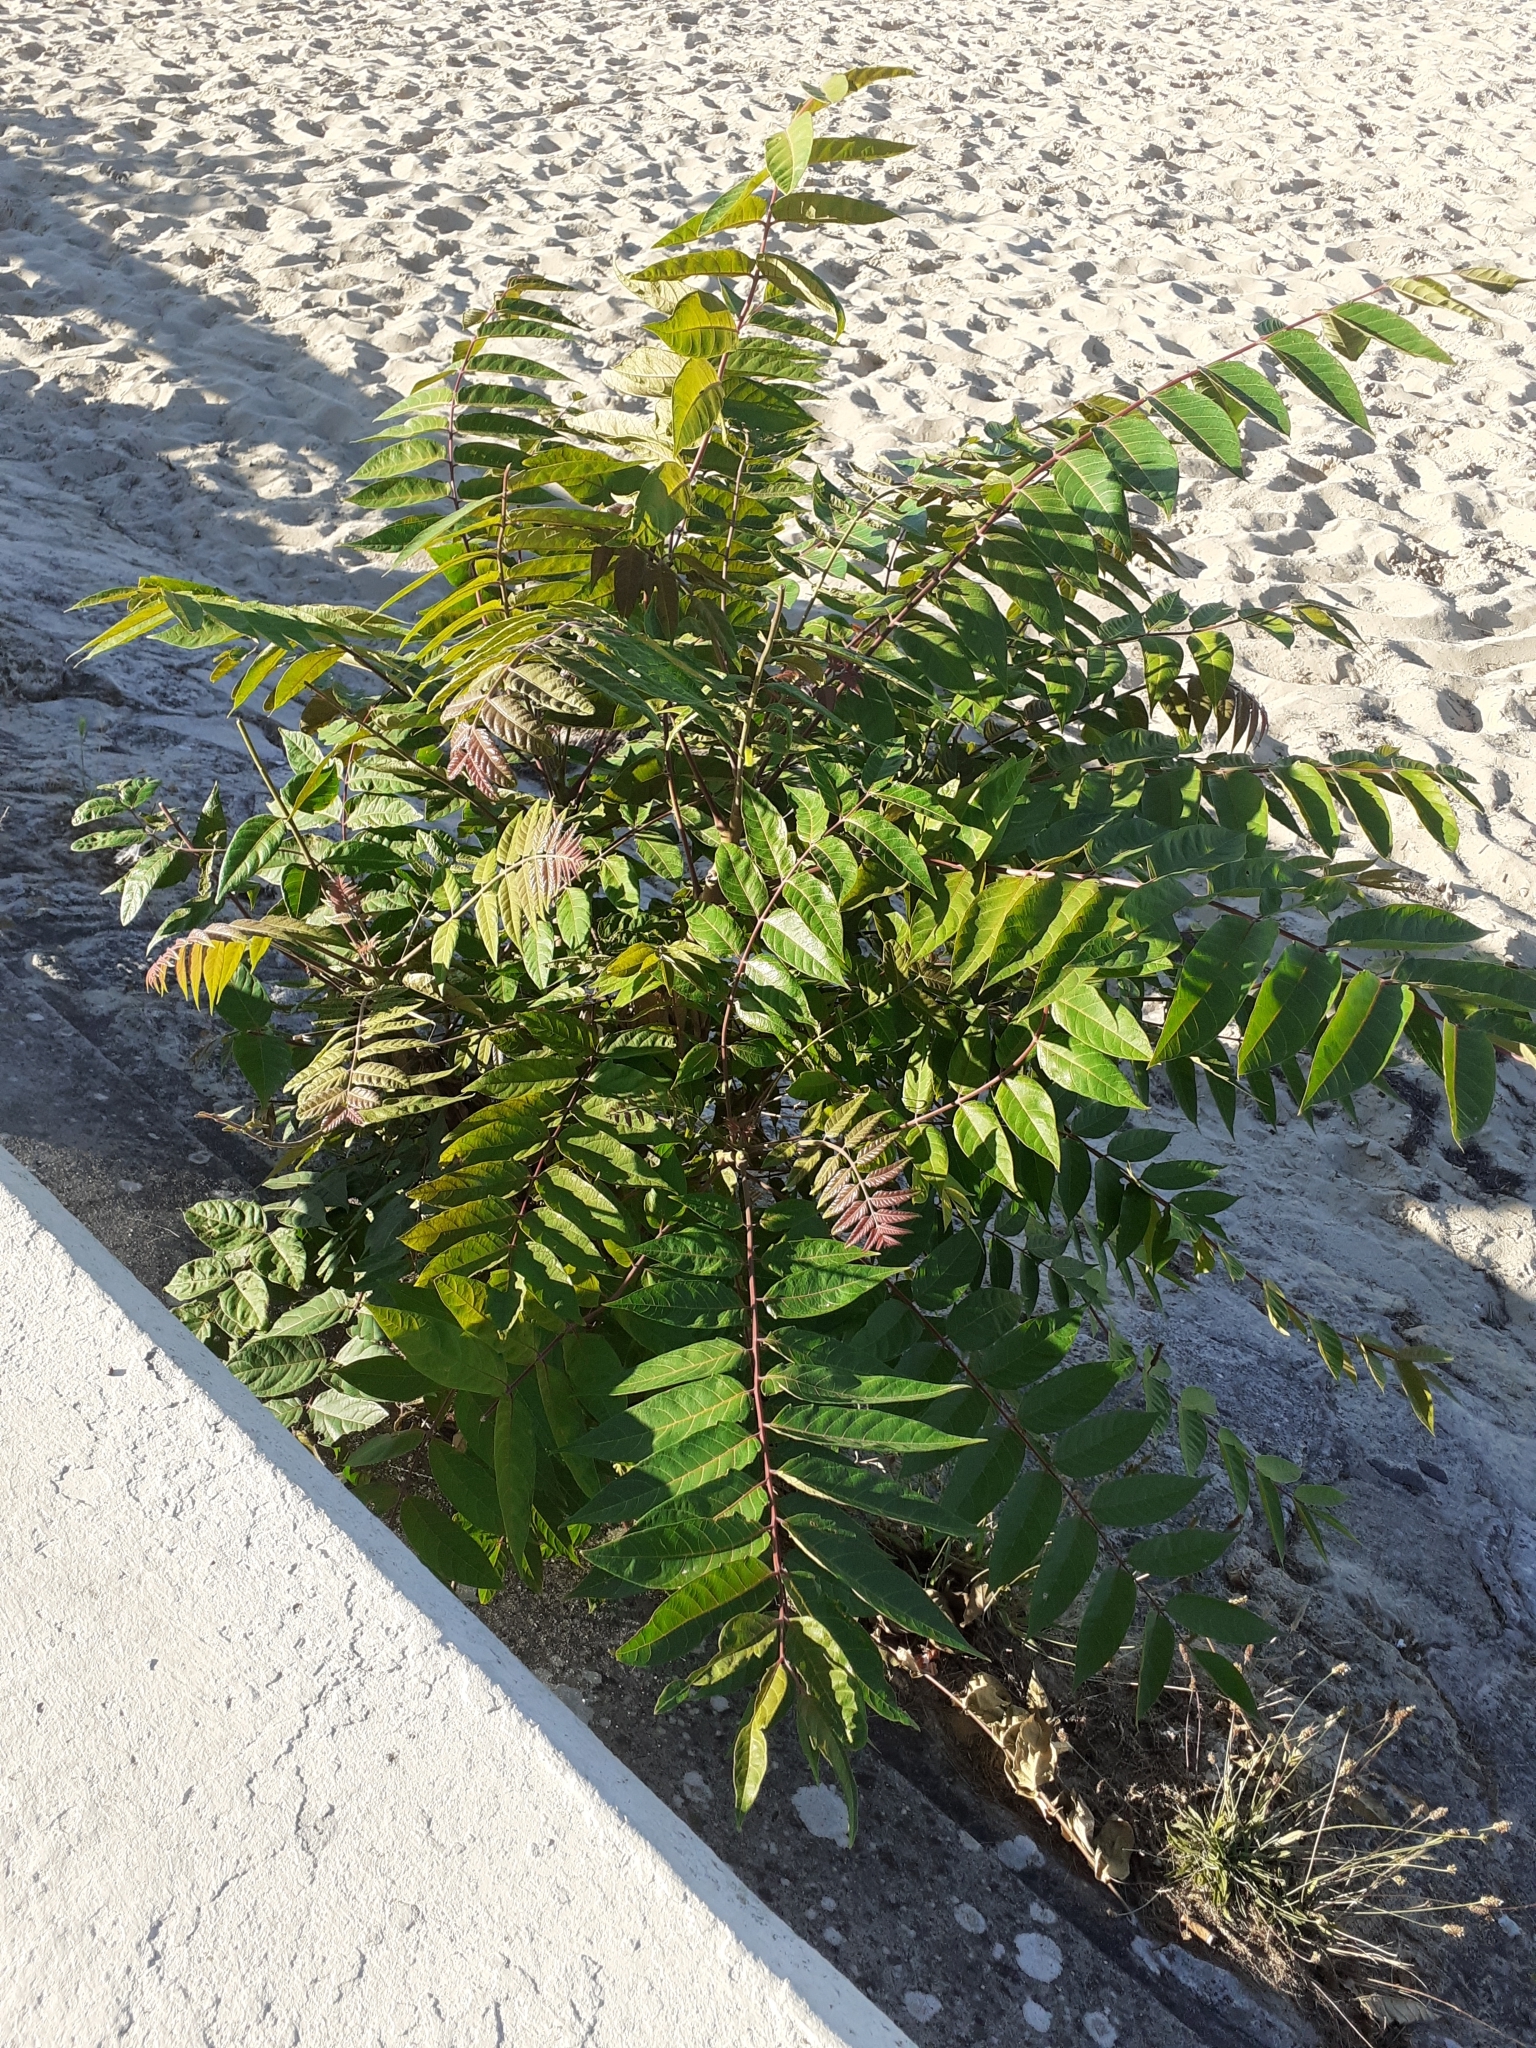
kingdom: Plantae
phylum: Tracheophyta
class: Magnoliopsida
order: Sapindales
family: Simaroubaceae
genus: Ailanthus
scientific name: Ailanthus altissima
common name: Tree-of-heaven
